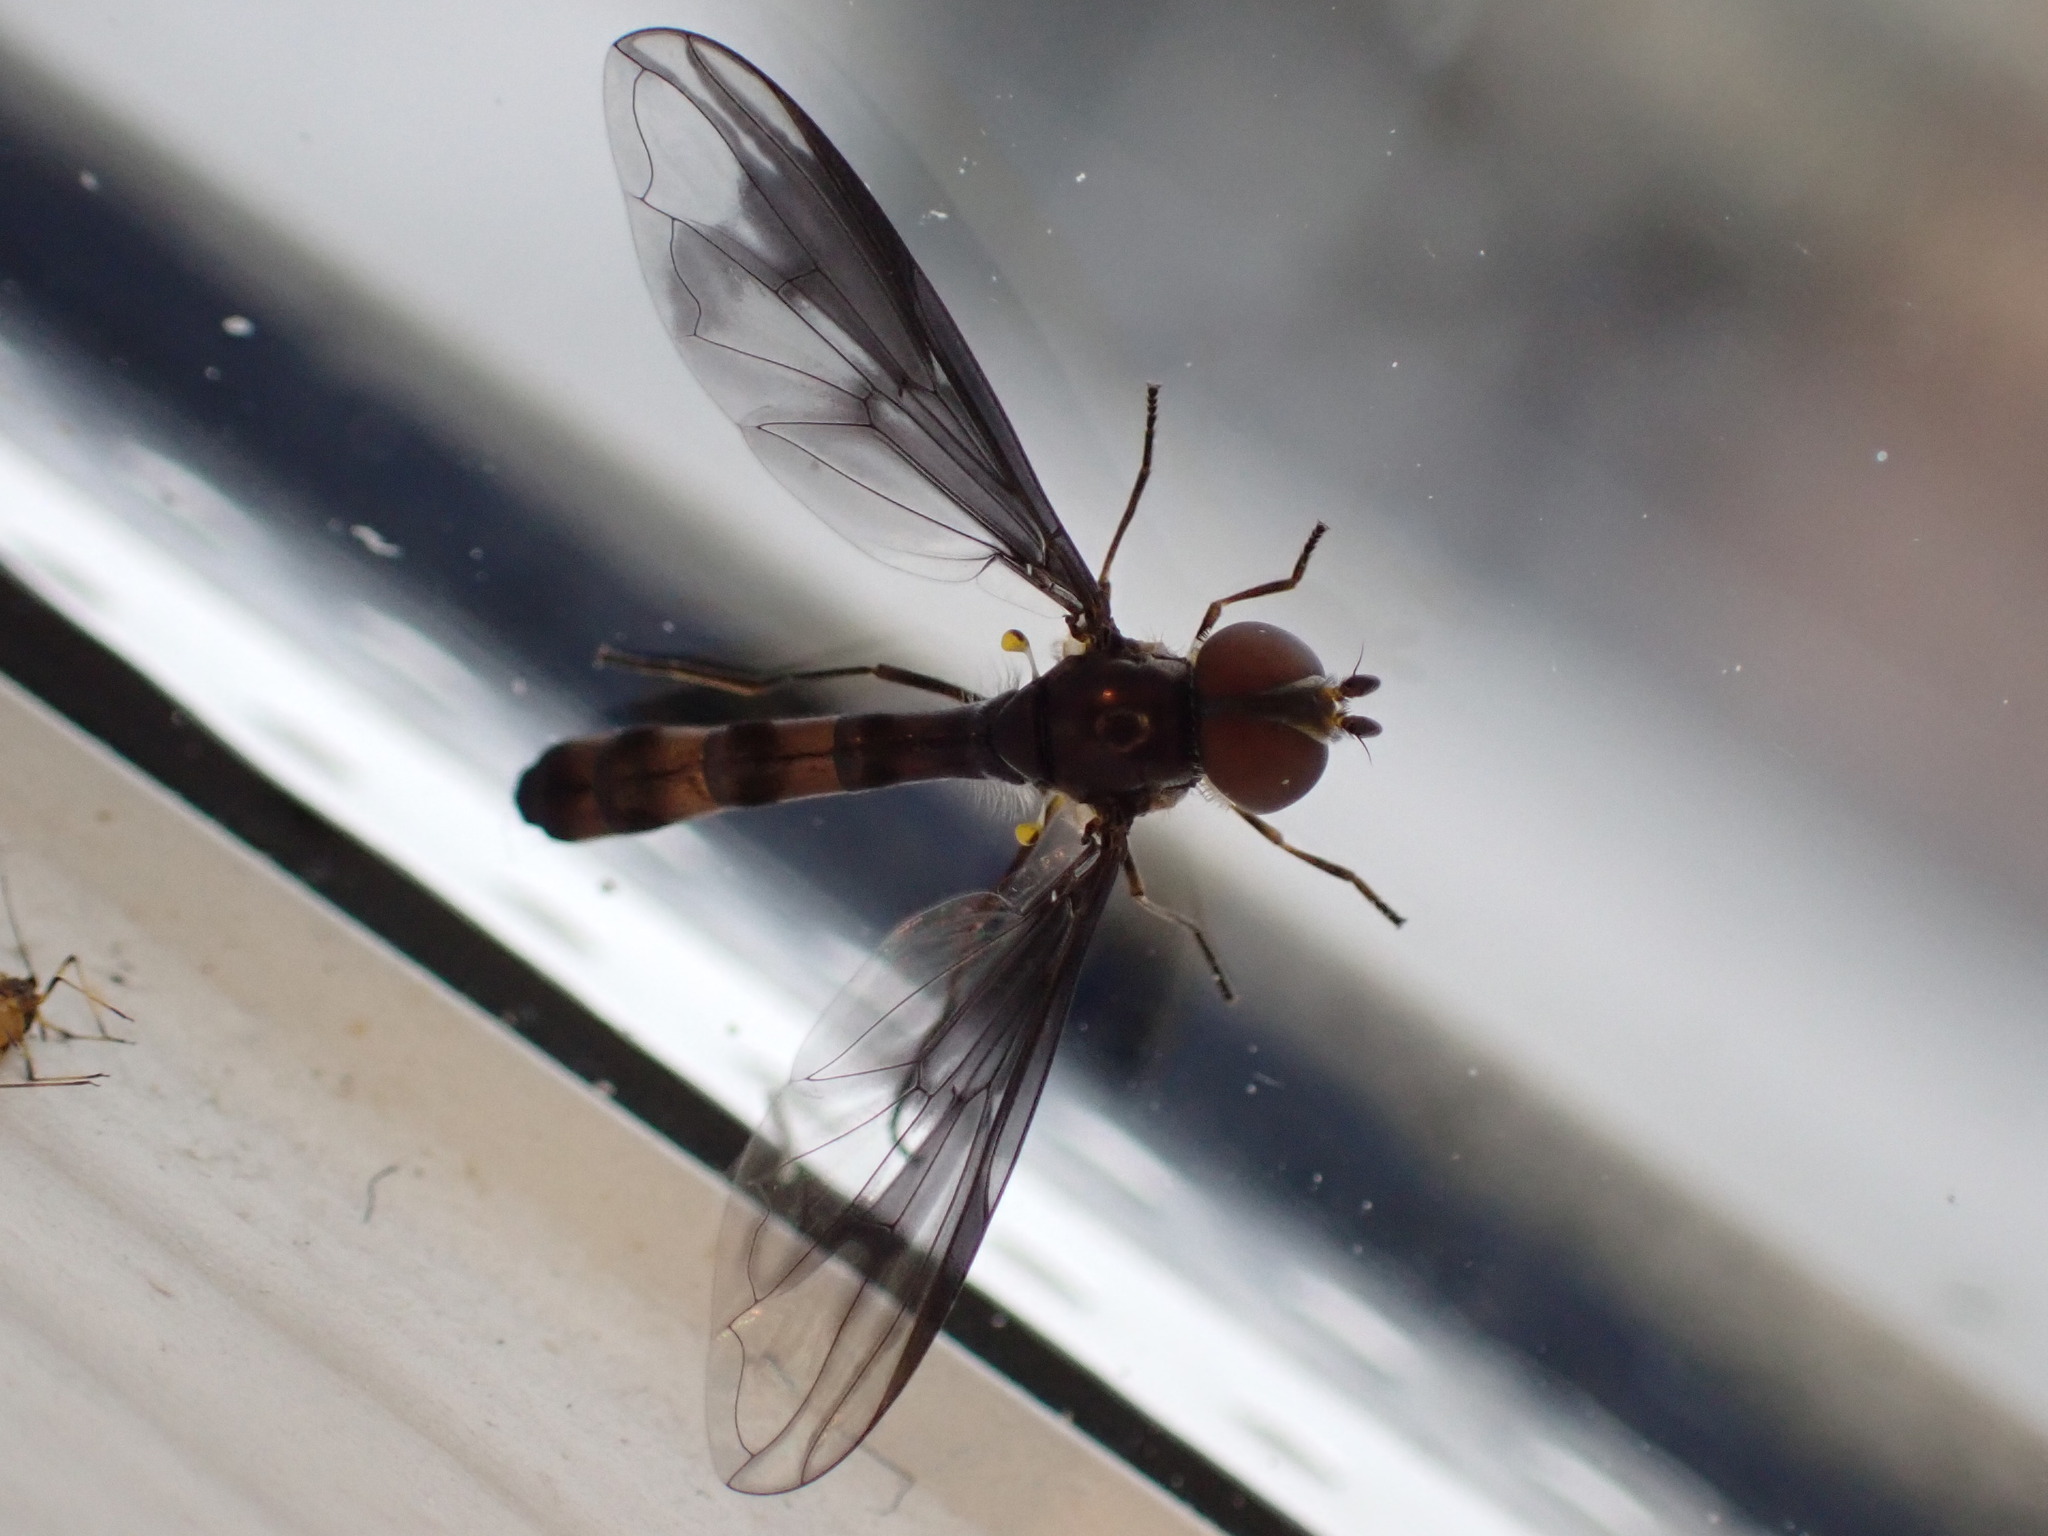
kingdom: Animalia
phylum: Arthropoda
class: Insecta
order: Diptera
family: Syrphidae
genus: Ocyptamus
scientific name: Ocyptamus fuscipennis
